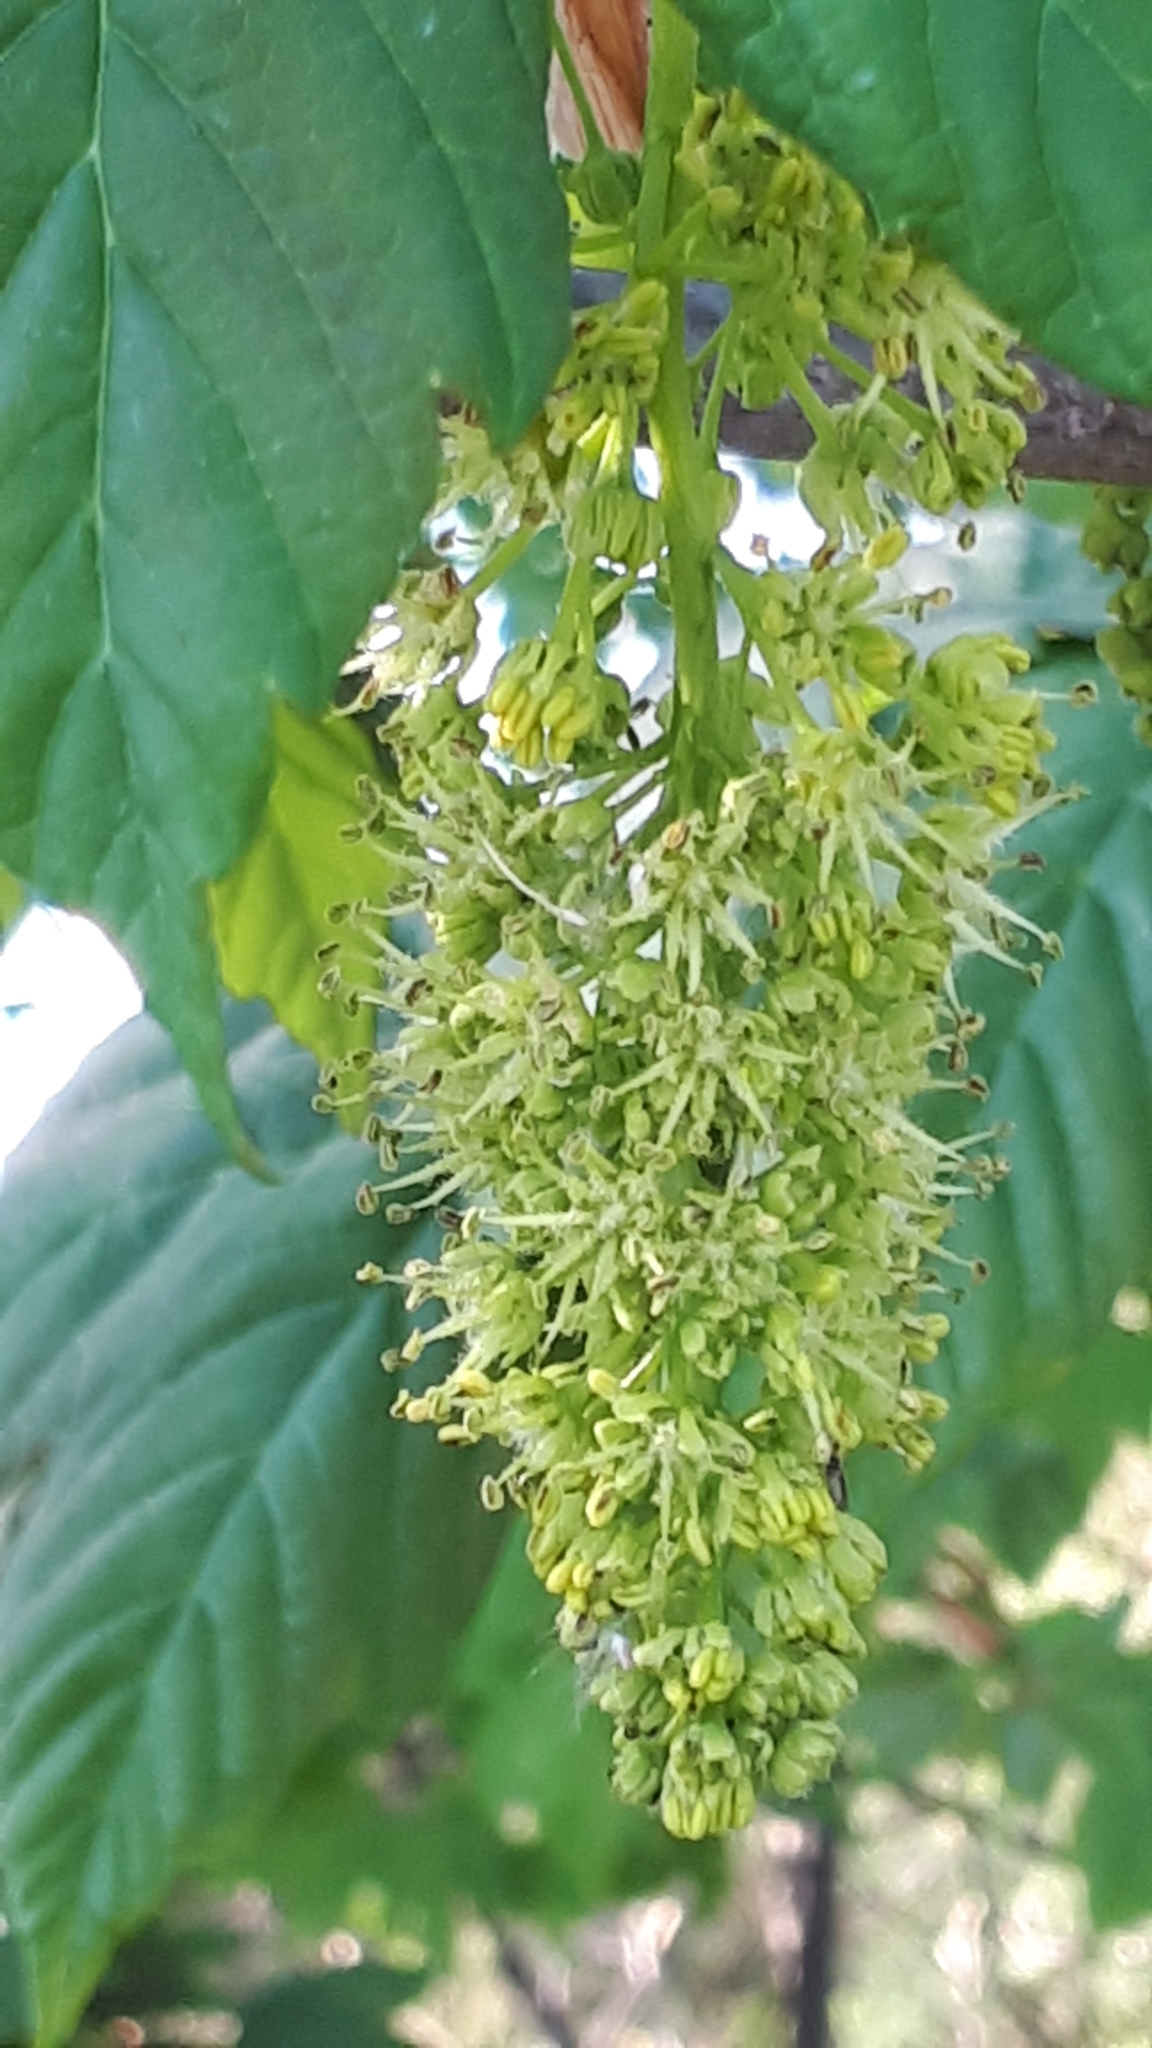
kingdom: Plantae
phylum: Tracheophyta
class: Magnoliopsida
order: Sapindales
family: Sapindaceae
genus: Acer
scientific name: Acer pseudoplatanus
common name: Sycamore
